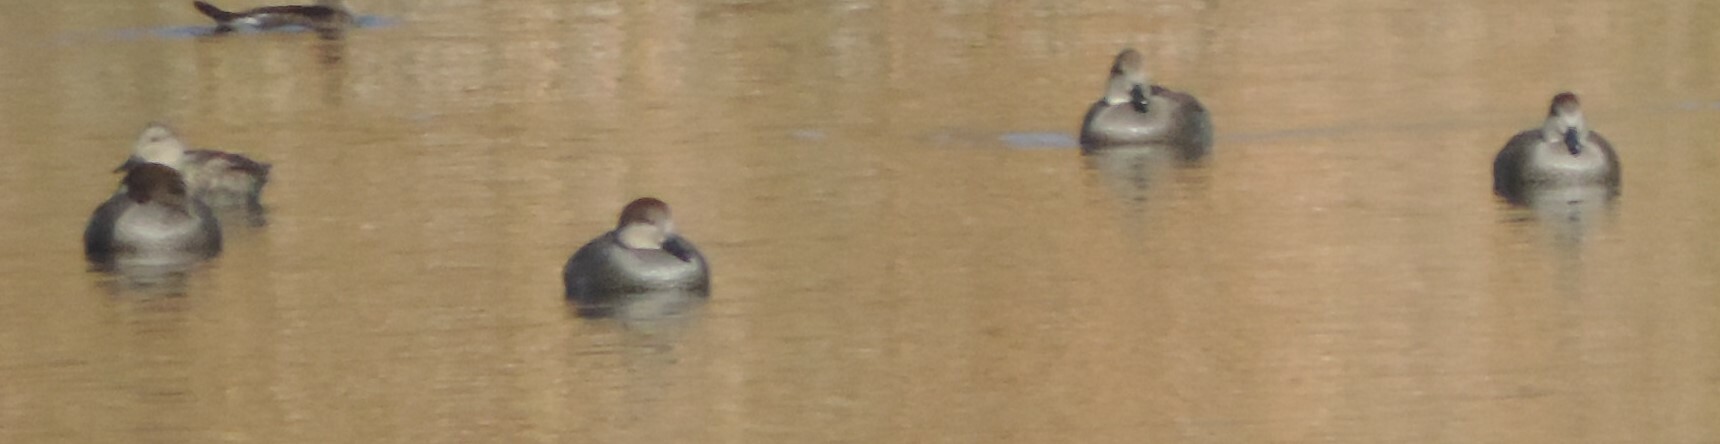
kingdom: Animalia
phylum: Chordata
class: Aves
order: Anseriformes
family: Anatidae
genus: Mareca
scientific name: Mareca strepera
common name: Gadwall
